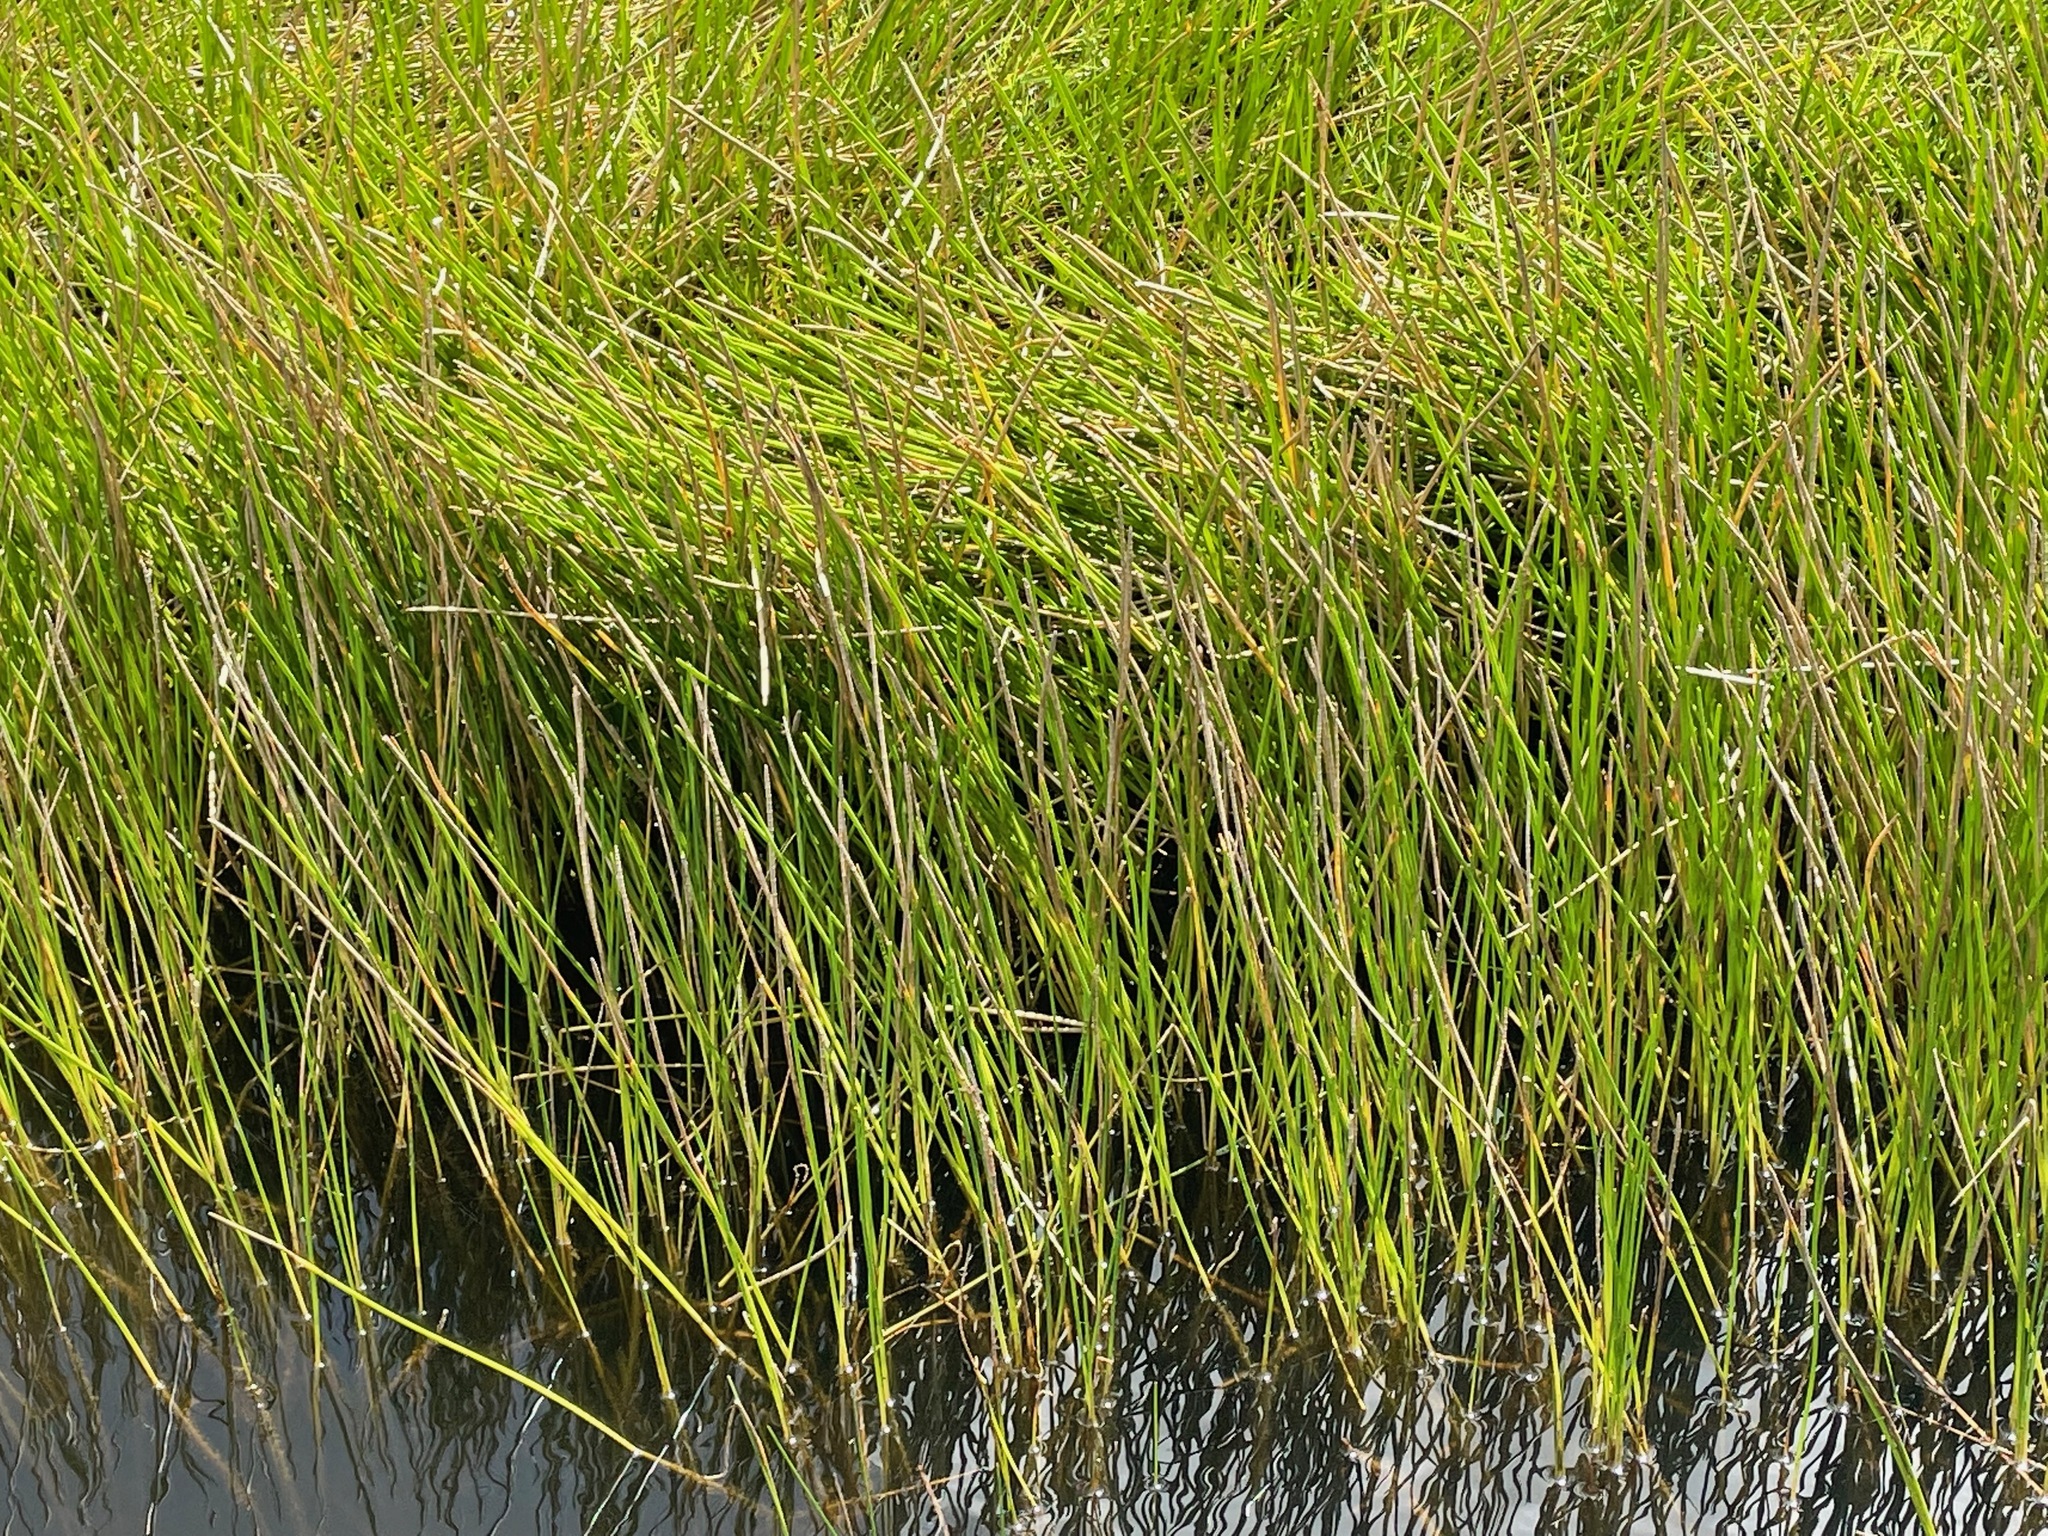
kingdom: Plantae
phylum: Tracheophyta
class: Liliopsida
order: Poales
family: Cyperaceae
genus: Eleocharis
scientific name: Eleocharis interstincta
